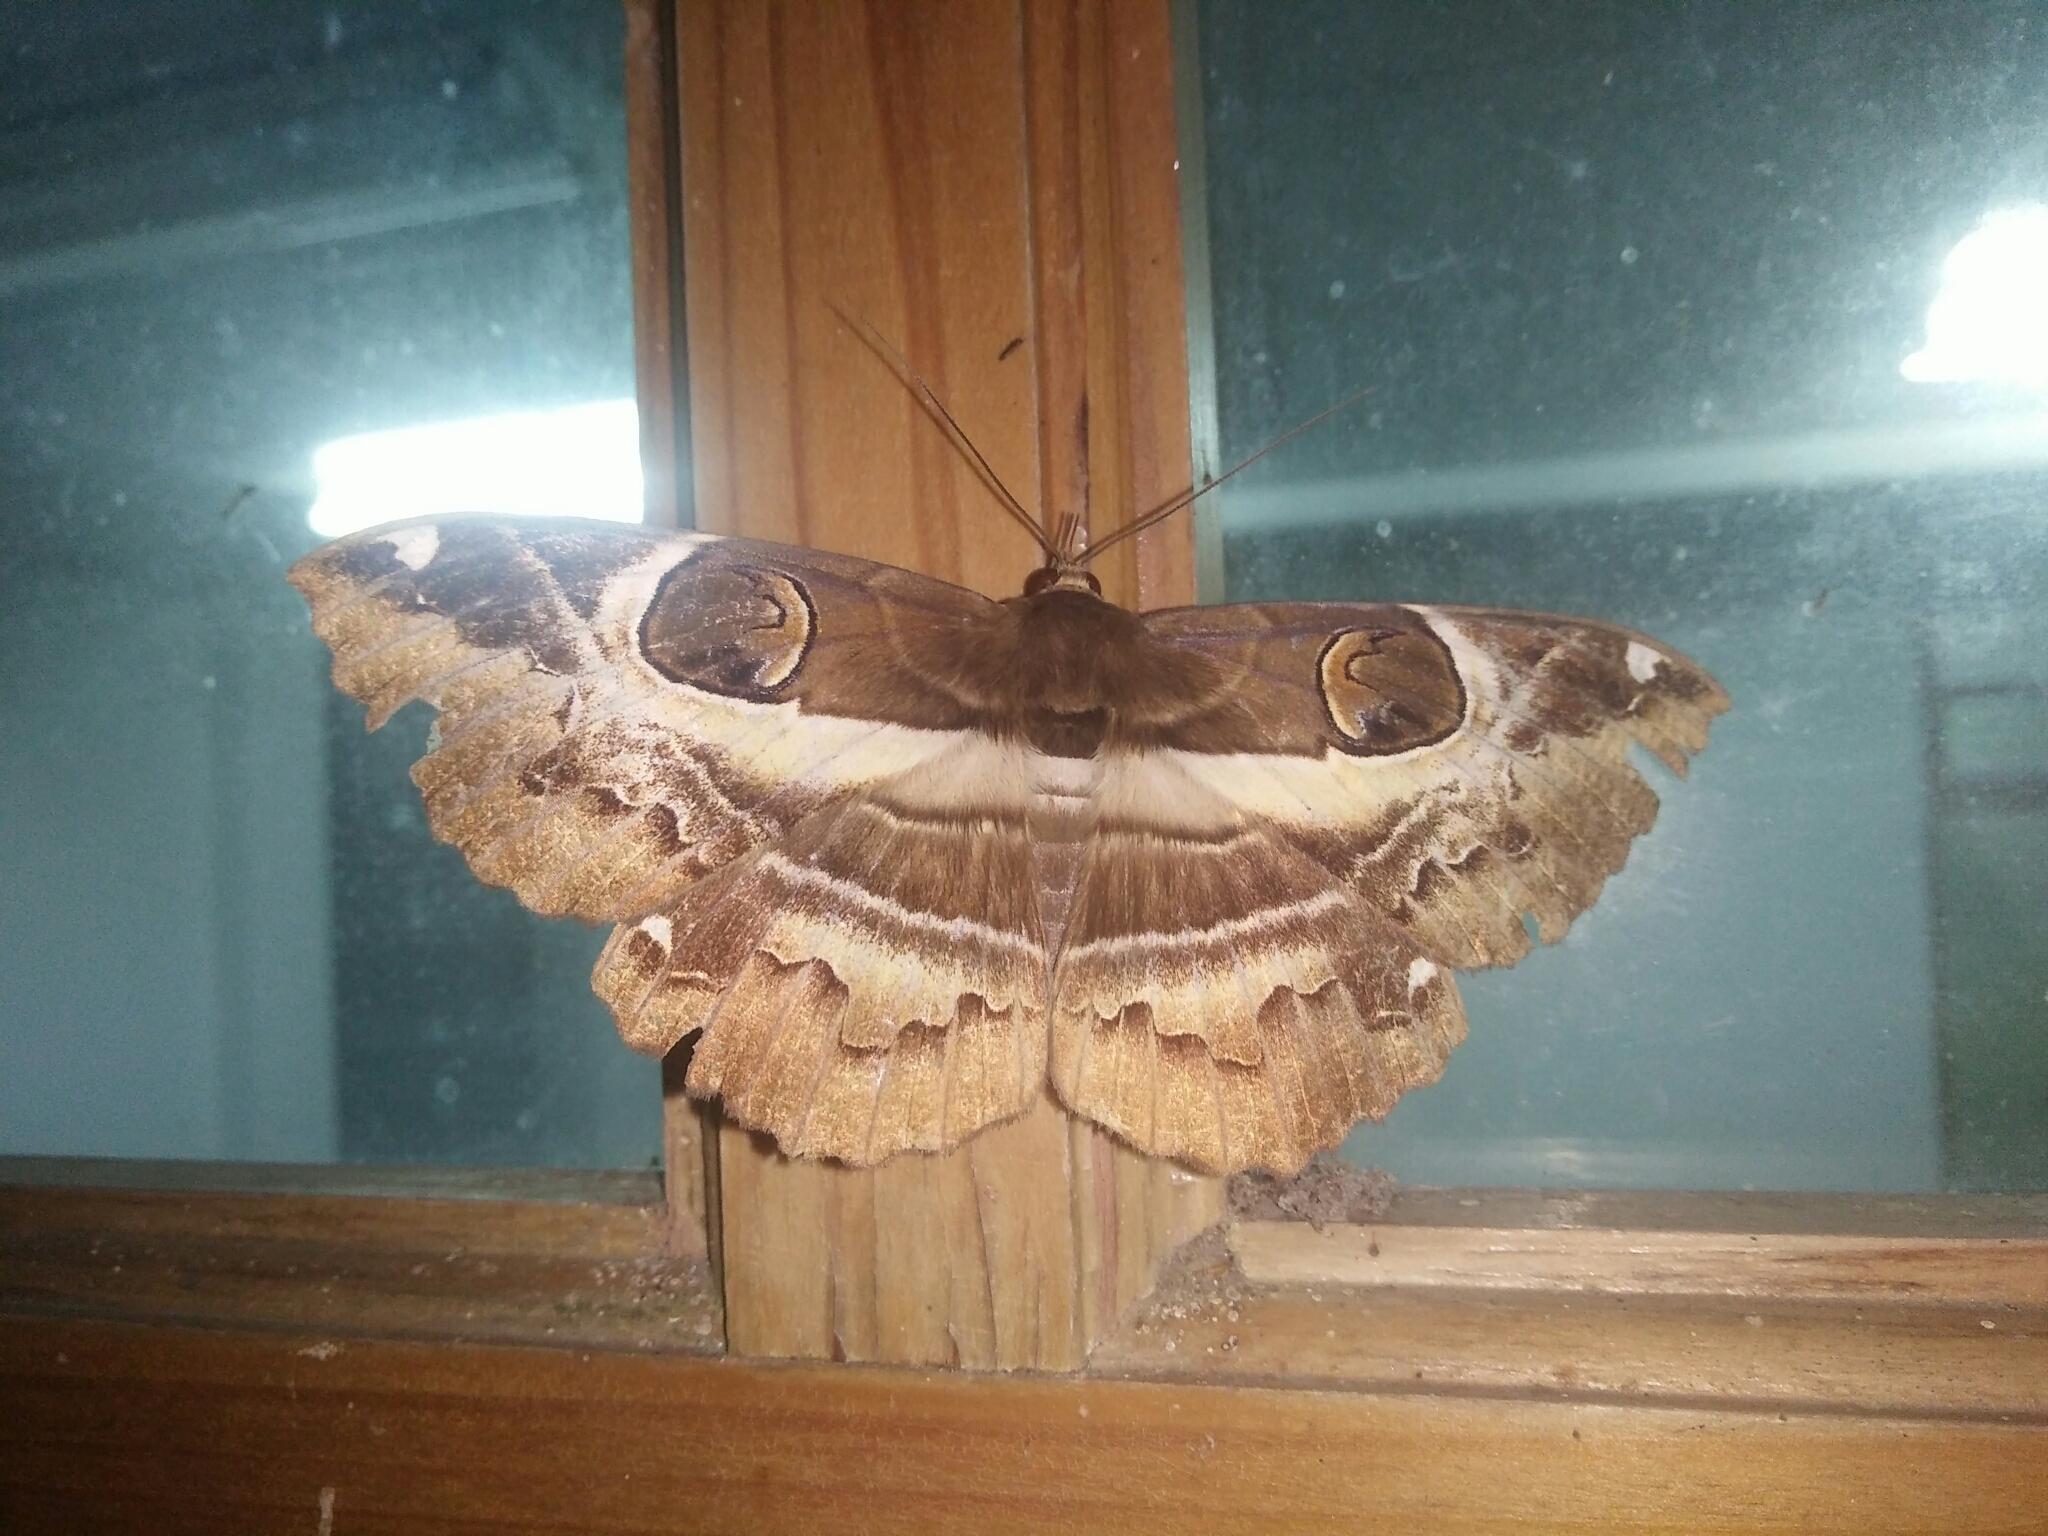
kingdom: Animalia
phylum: Arthropoda
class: Insecta
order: Lepidoptera
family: Erebidae
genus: Erebus
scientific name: Erebus ephesperis
